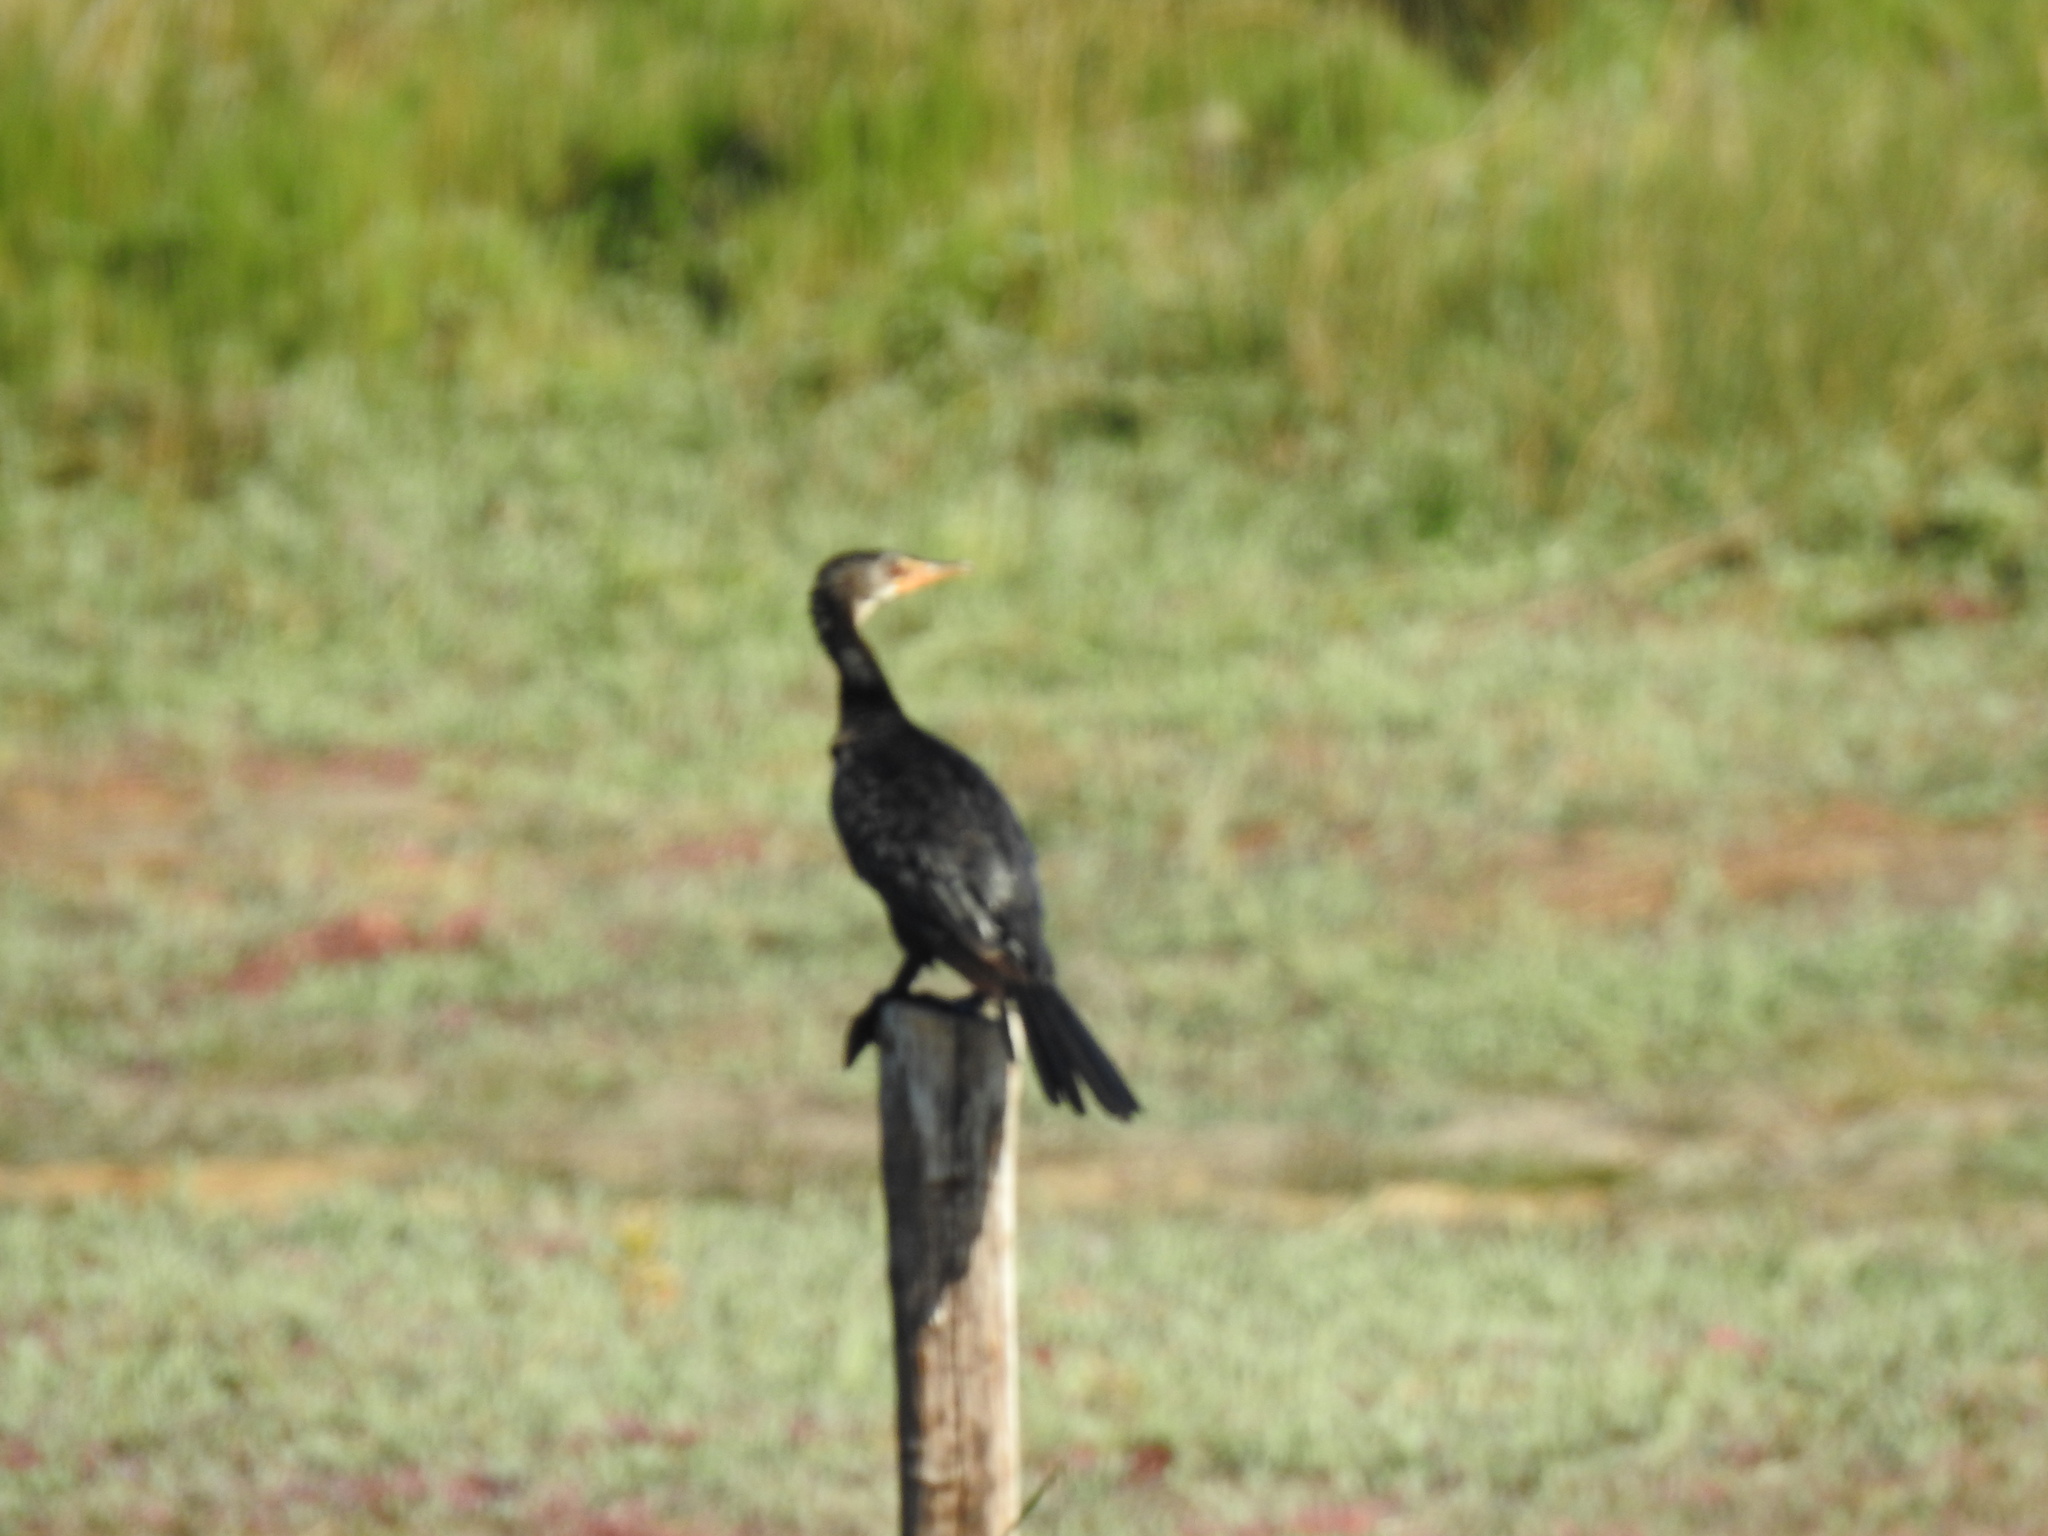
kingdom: Animalia
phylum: Chordata
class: Aves
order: Suliformes
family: Phalacrocoracidae
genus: Microcarbo
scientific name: Microcarbo africanus
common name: Long-tailed cormorant
